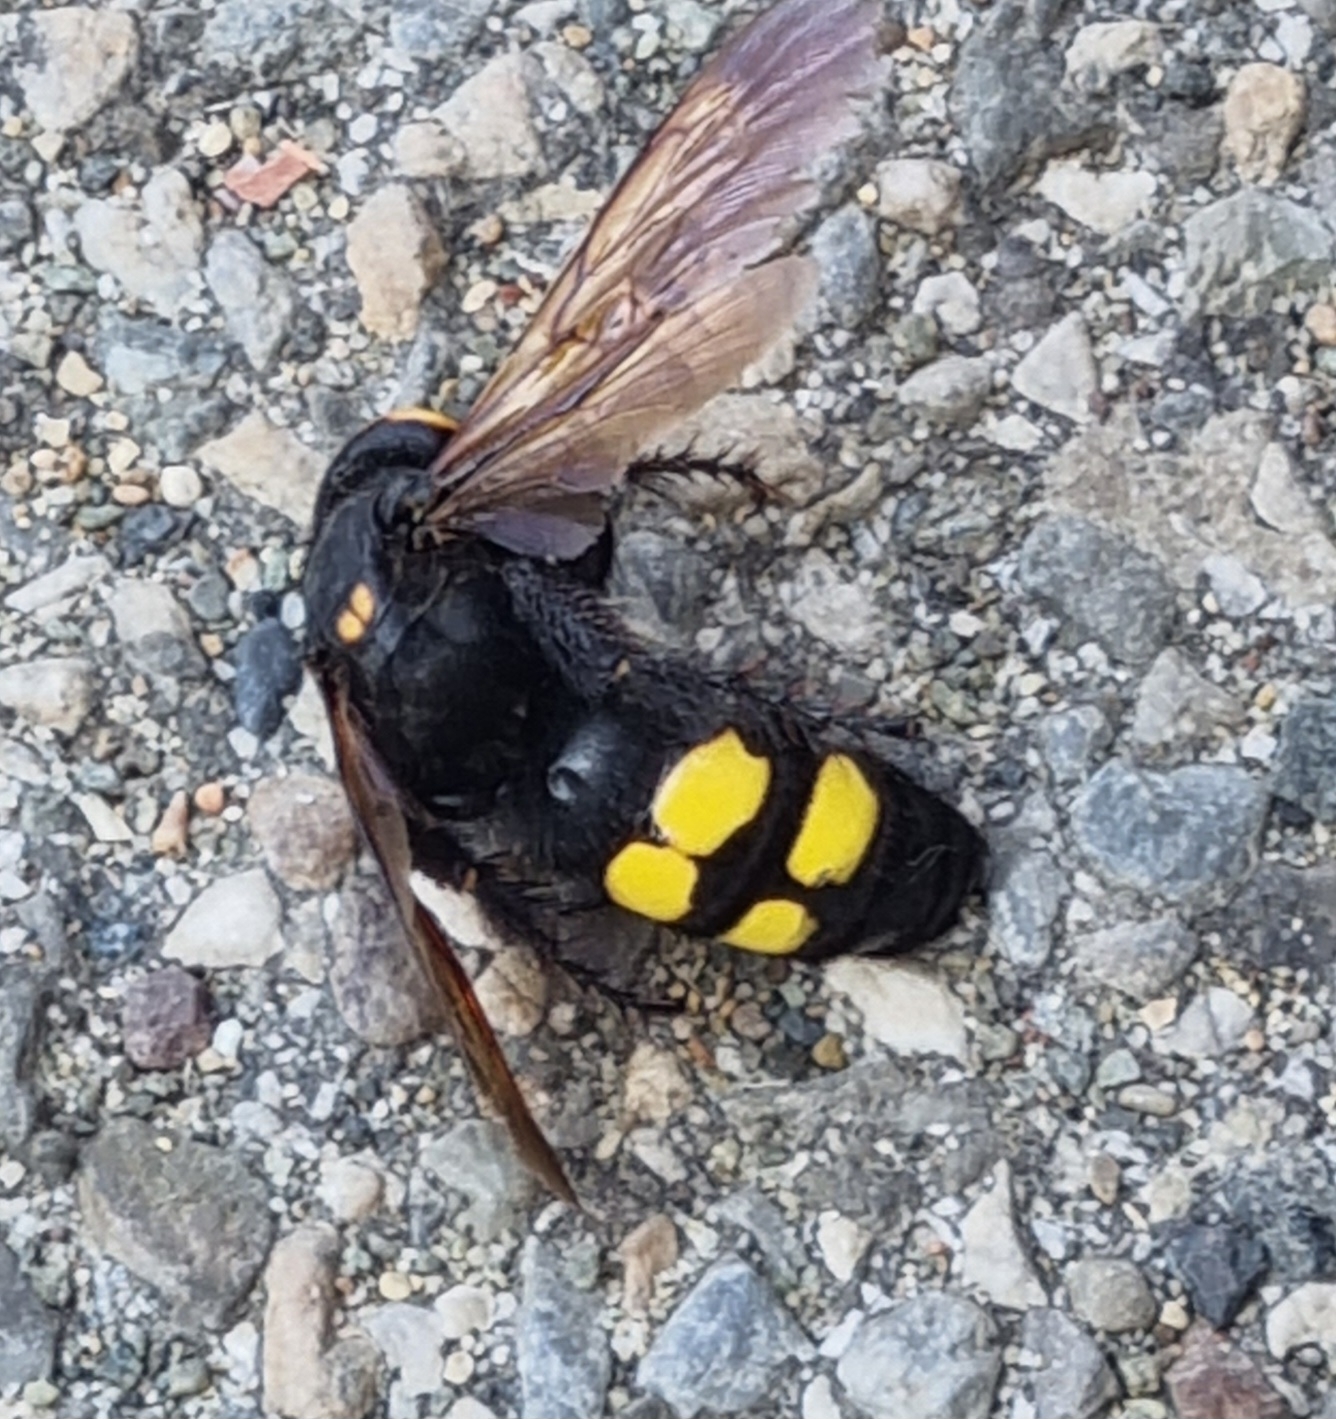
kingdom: Animalia
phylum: Arthropoda
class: Insecta
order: Hymenoptera
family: Scoliidae
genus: Megascolia
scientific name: Megascolia
